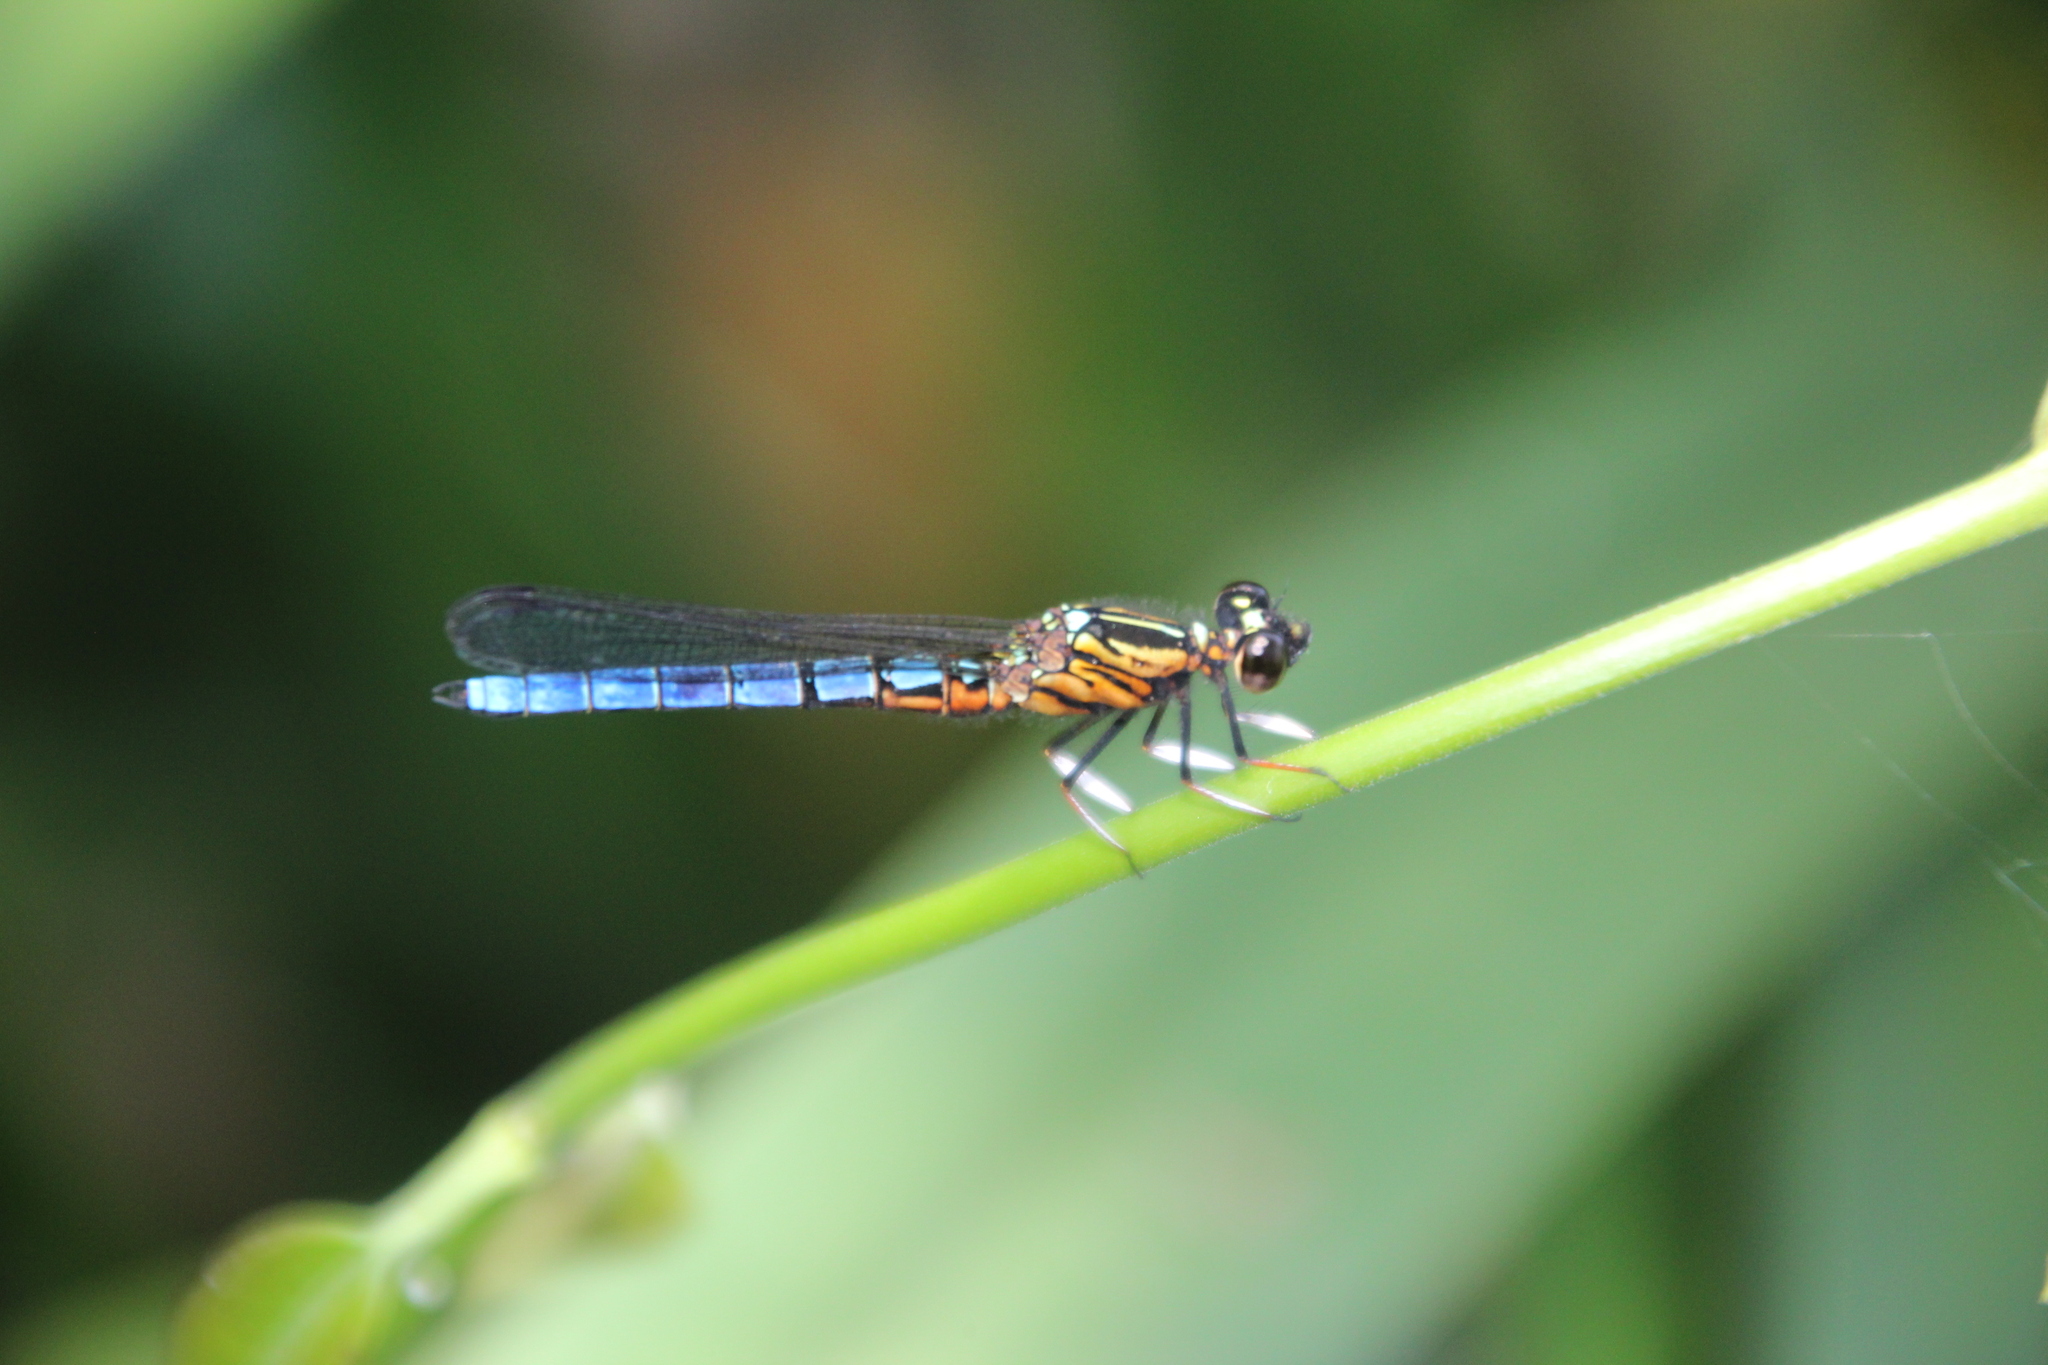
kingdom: Animalia
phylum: Arthropoda
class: Insecta
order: Odonata
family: Chlorocyphidae
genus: Platycypha
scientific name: Platycypha caligata
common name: Dancing jewel
